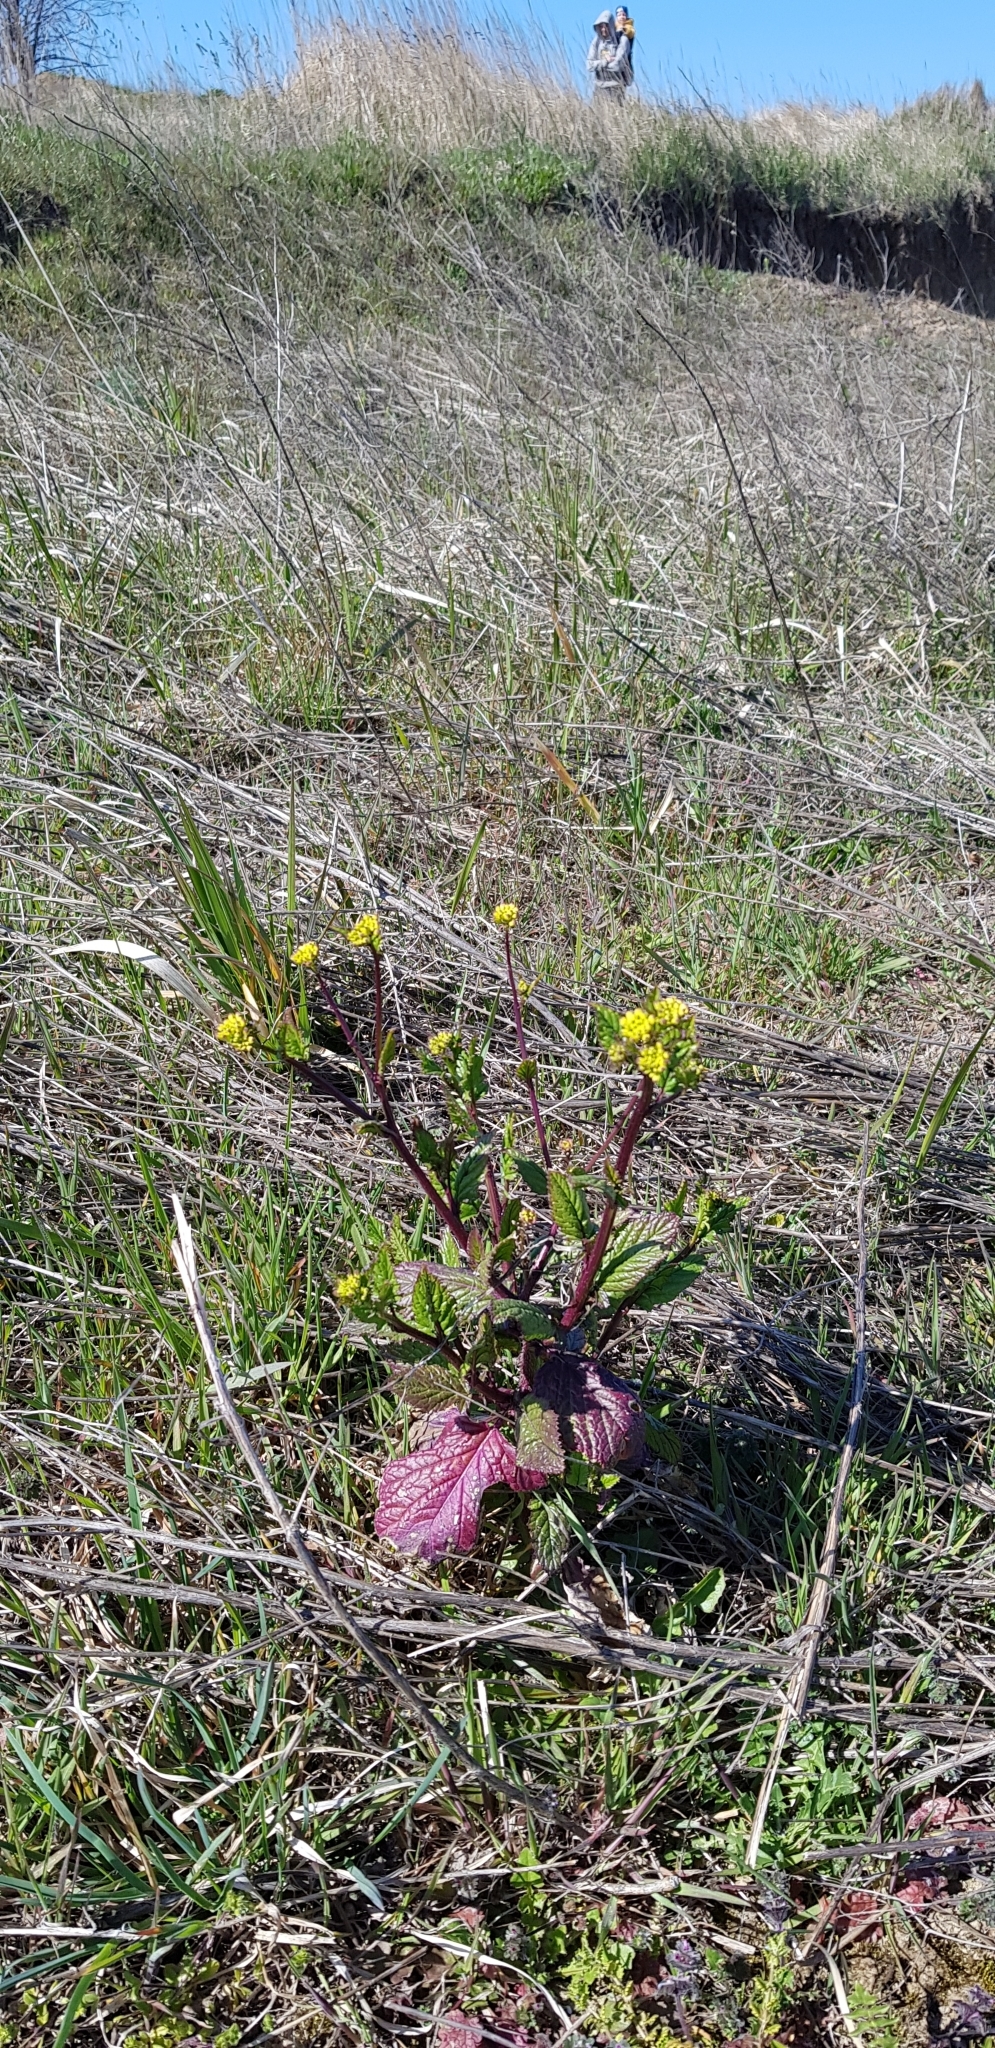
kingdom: Plantae
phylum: Tracheophyta
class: Magnoliopsida
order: Brassicales
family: Brassicaceae
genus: Sinapis
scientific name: Sinapis arvensis
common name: Charlock
